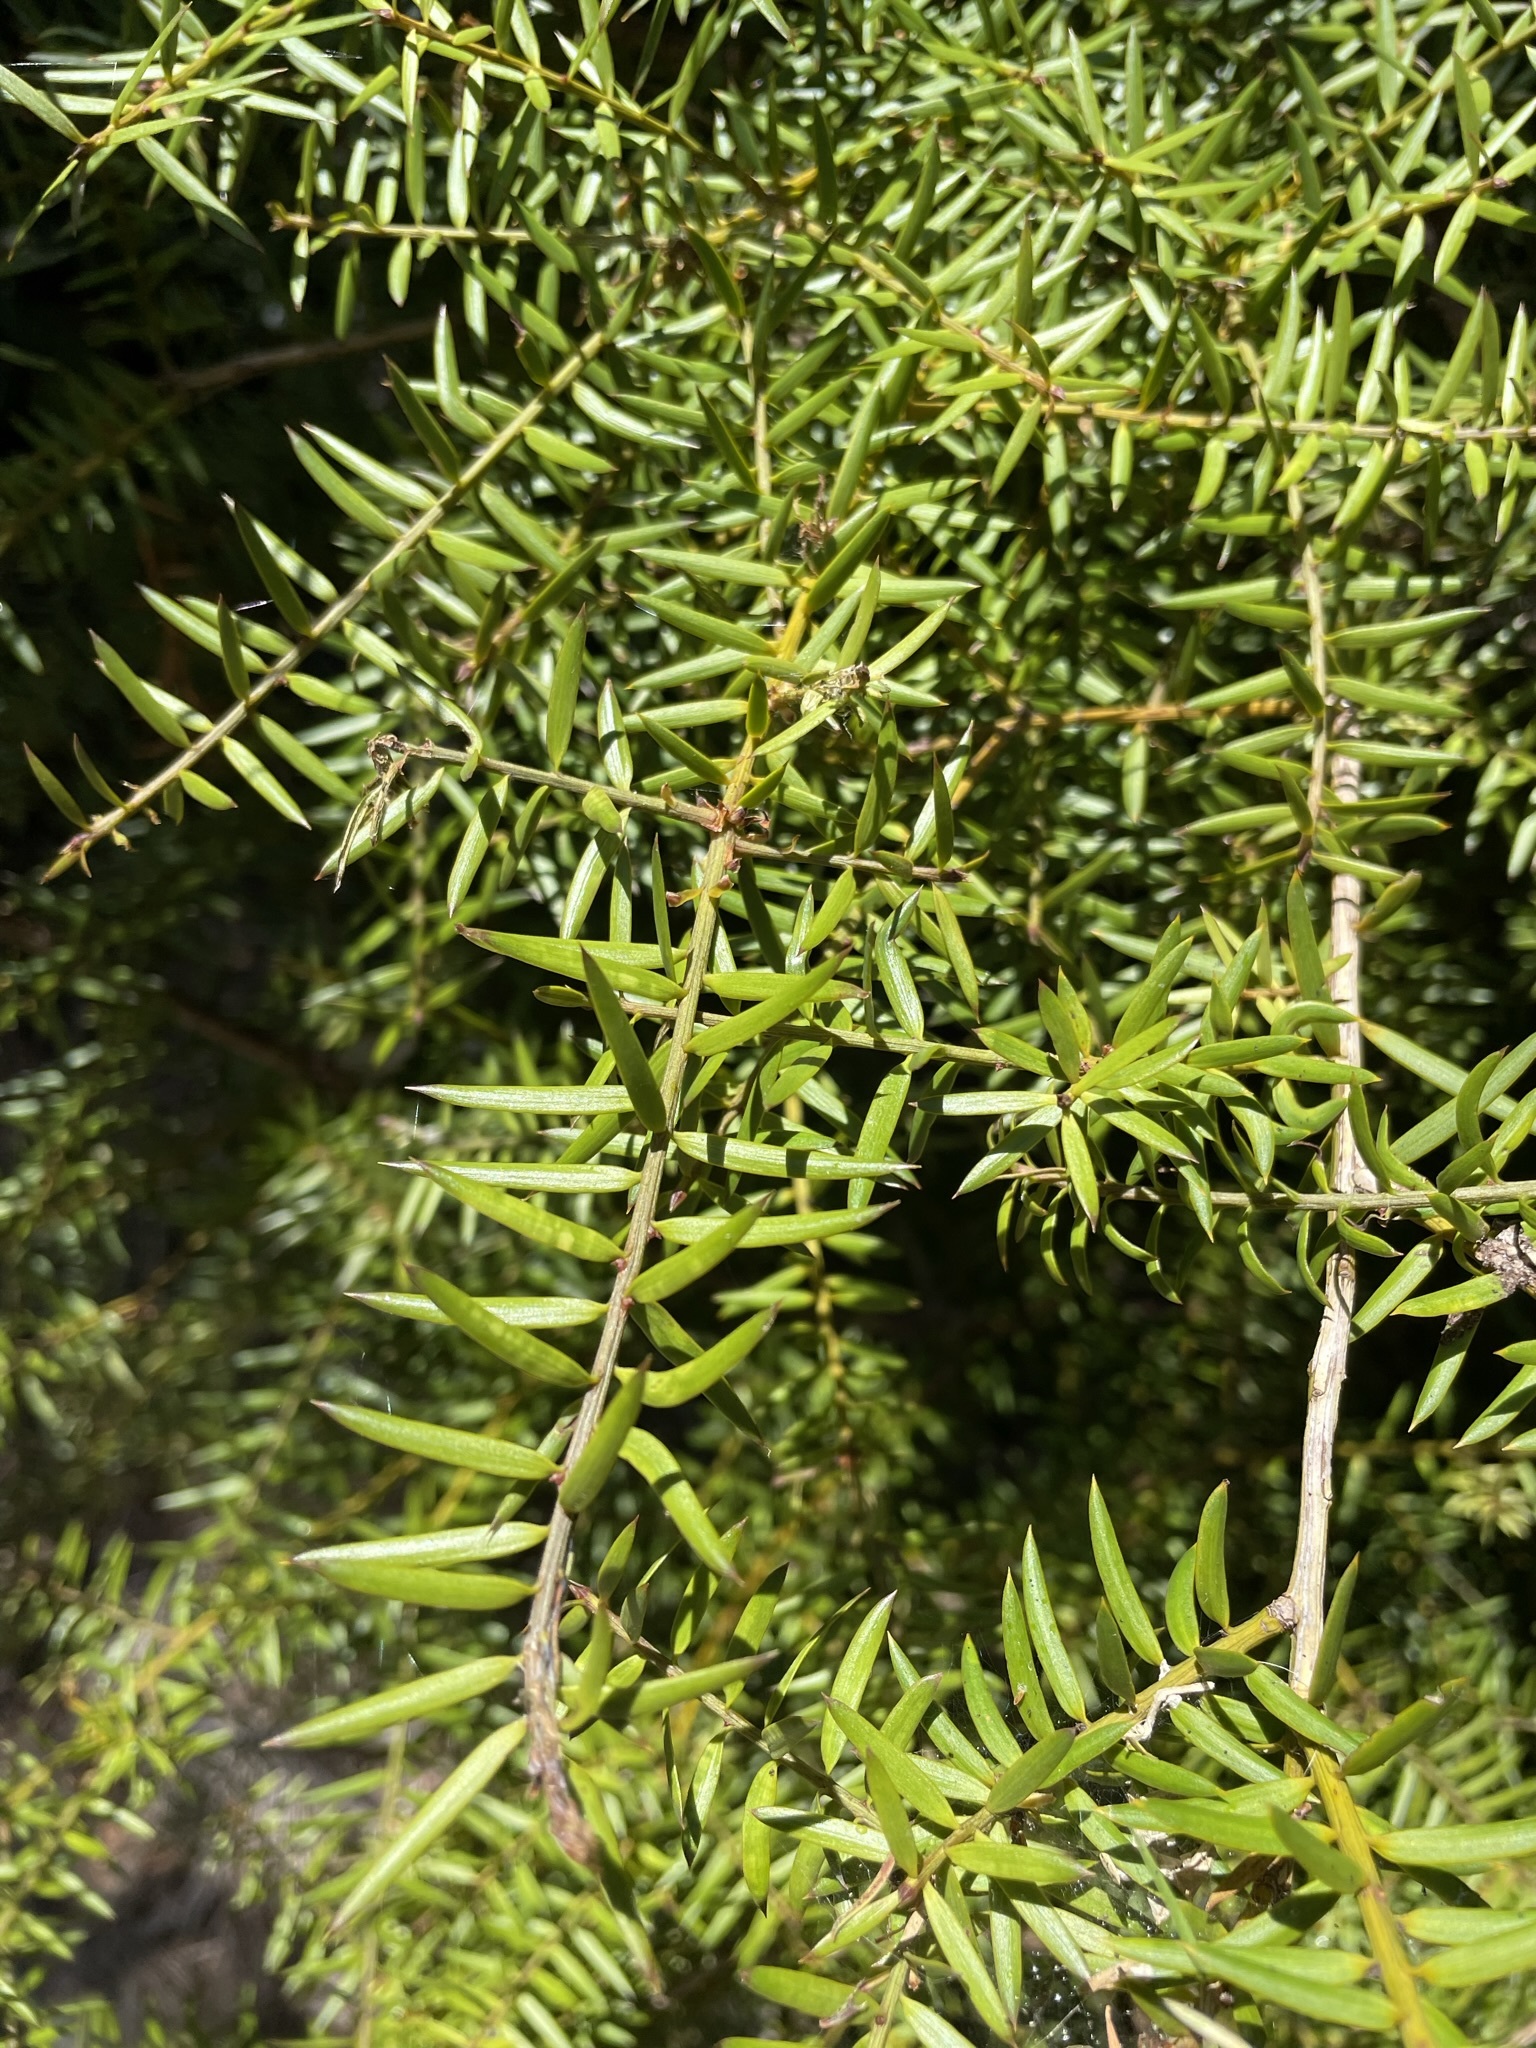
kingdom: Plantae
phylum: Tracheophyta
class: Pinopsida
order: Pinales
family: Podocarpaceae
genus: Podocarpus
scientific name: Podocarpus totara
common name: Totara
